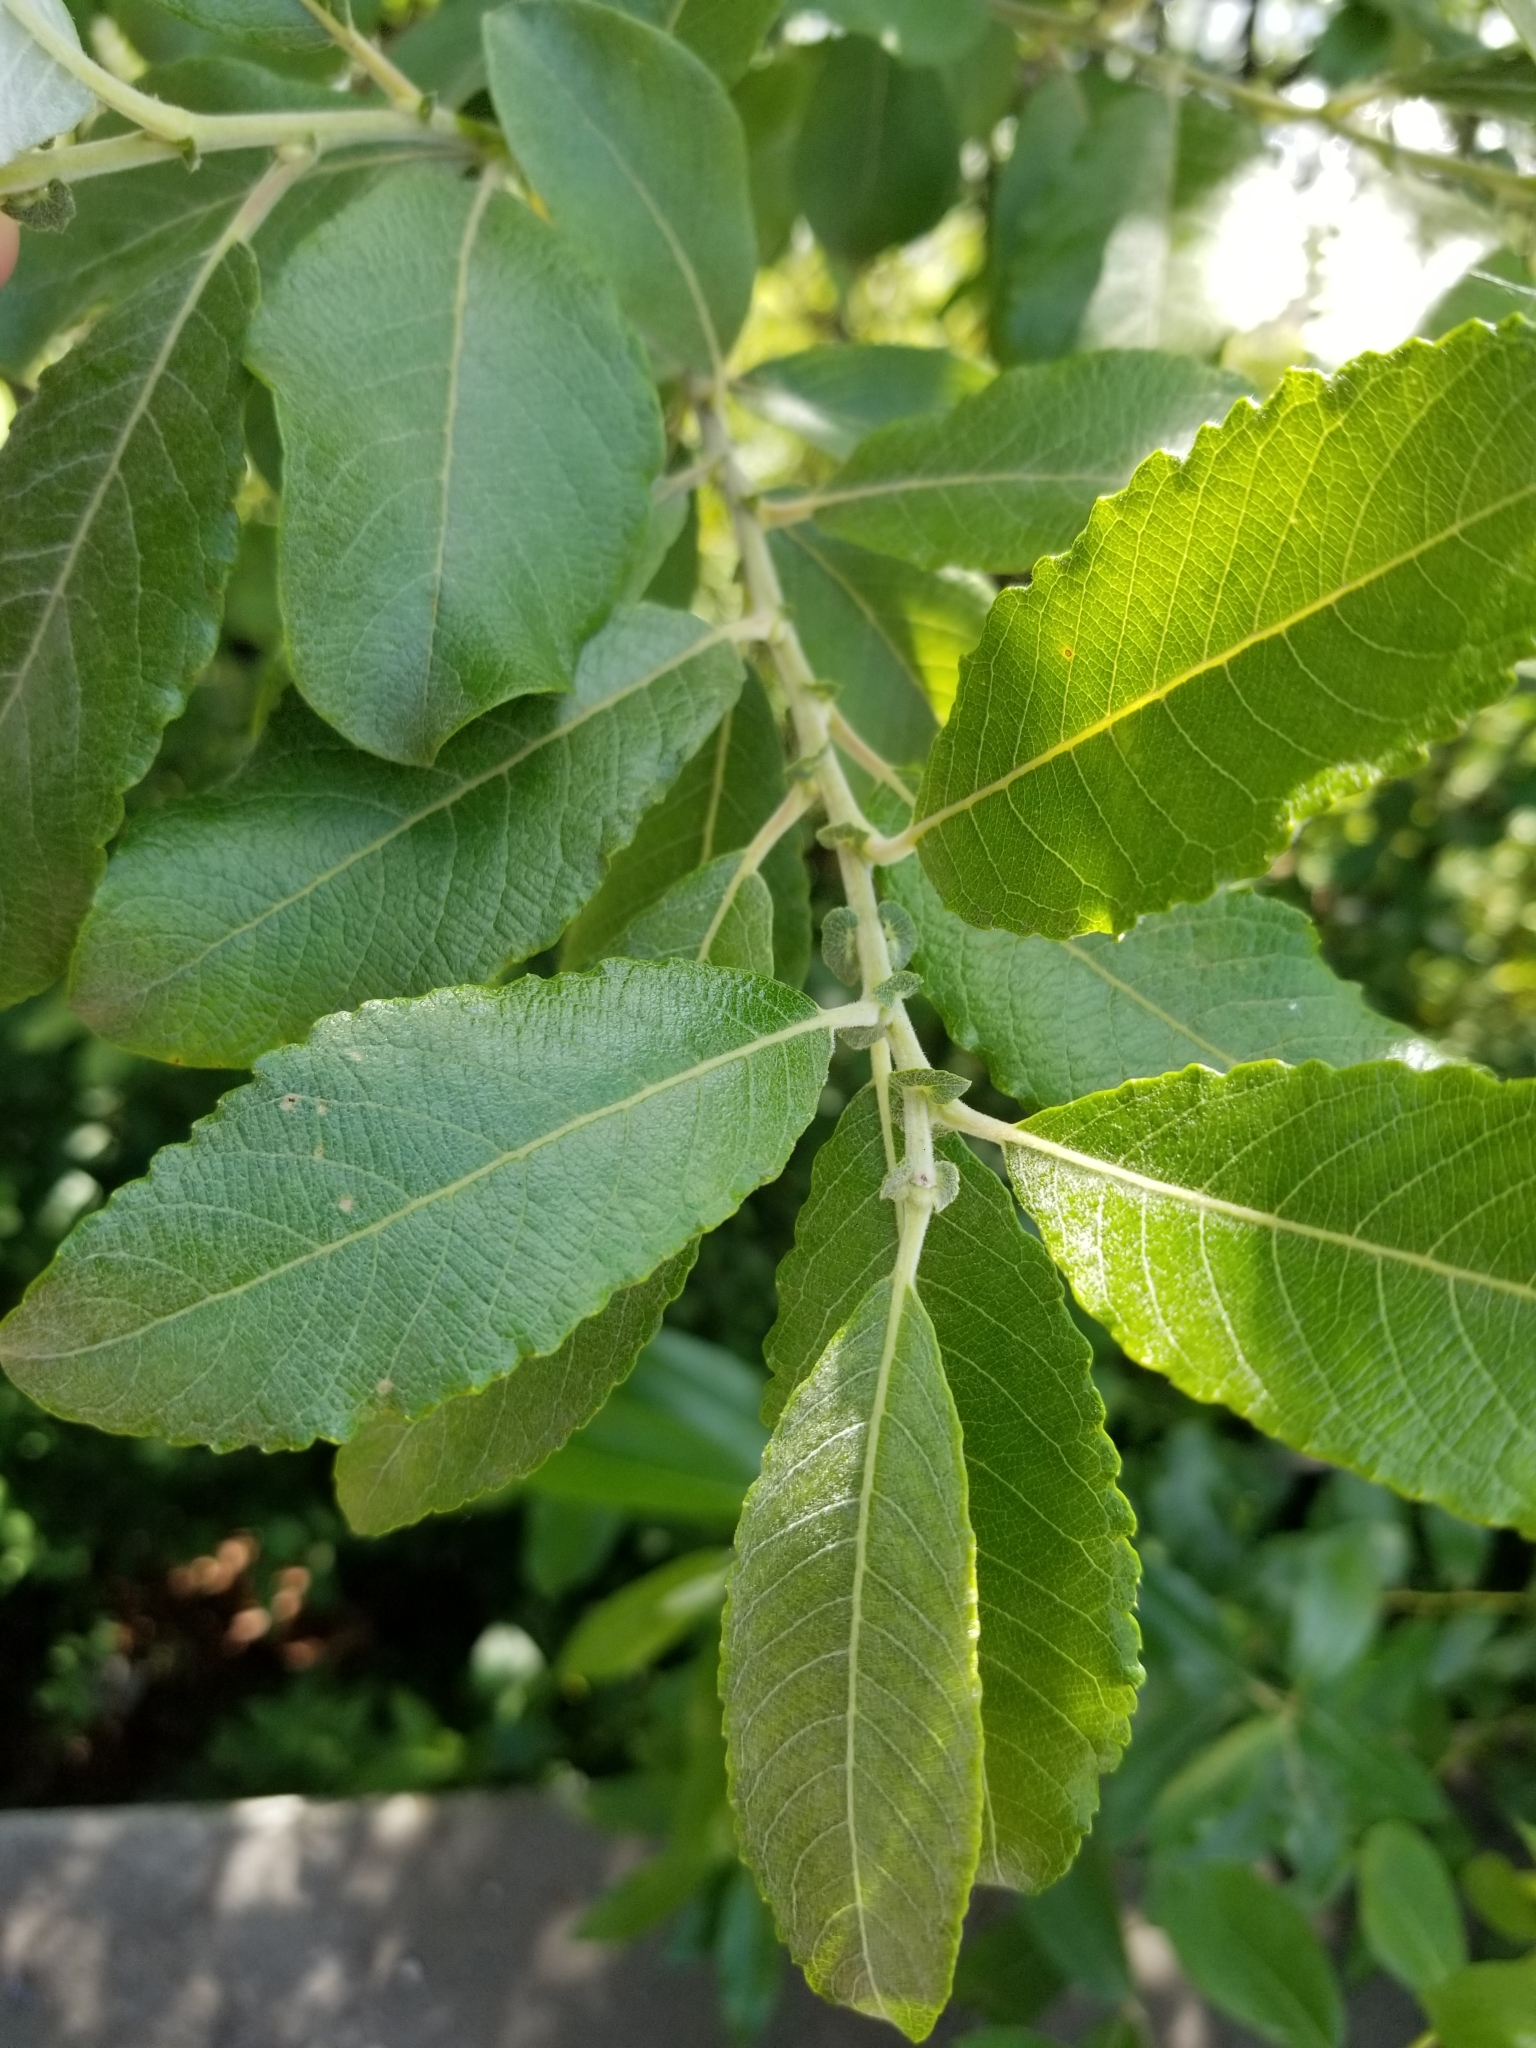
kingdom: Plantae
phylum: Tracheophyta
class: Magnoliopsida
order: Malpighiales
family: Salicaceae
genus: Salix
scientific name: Salix scouleriana
